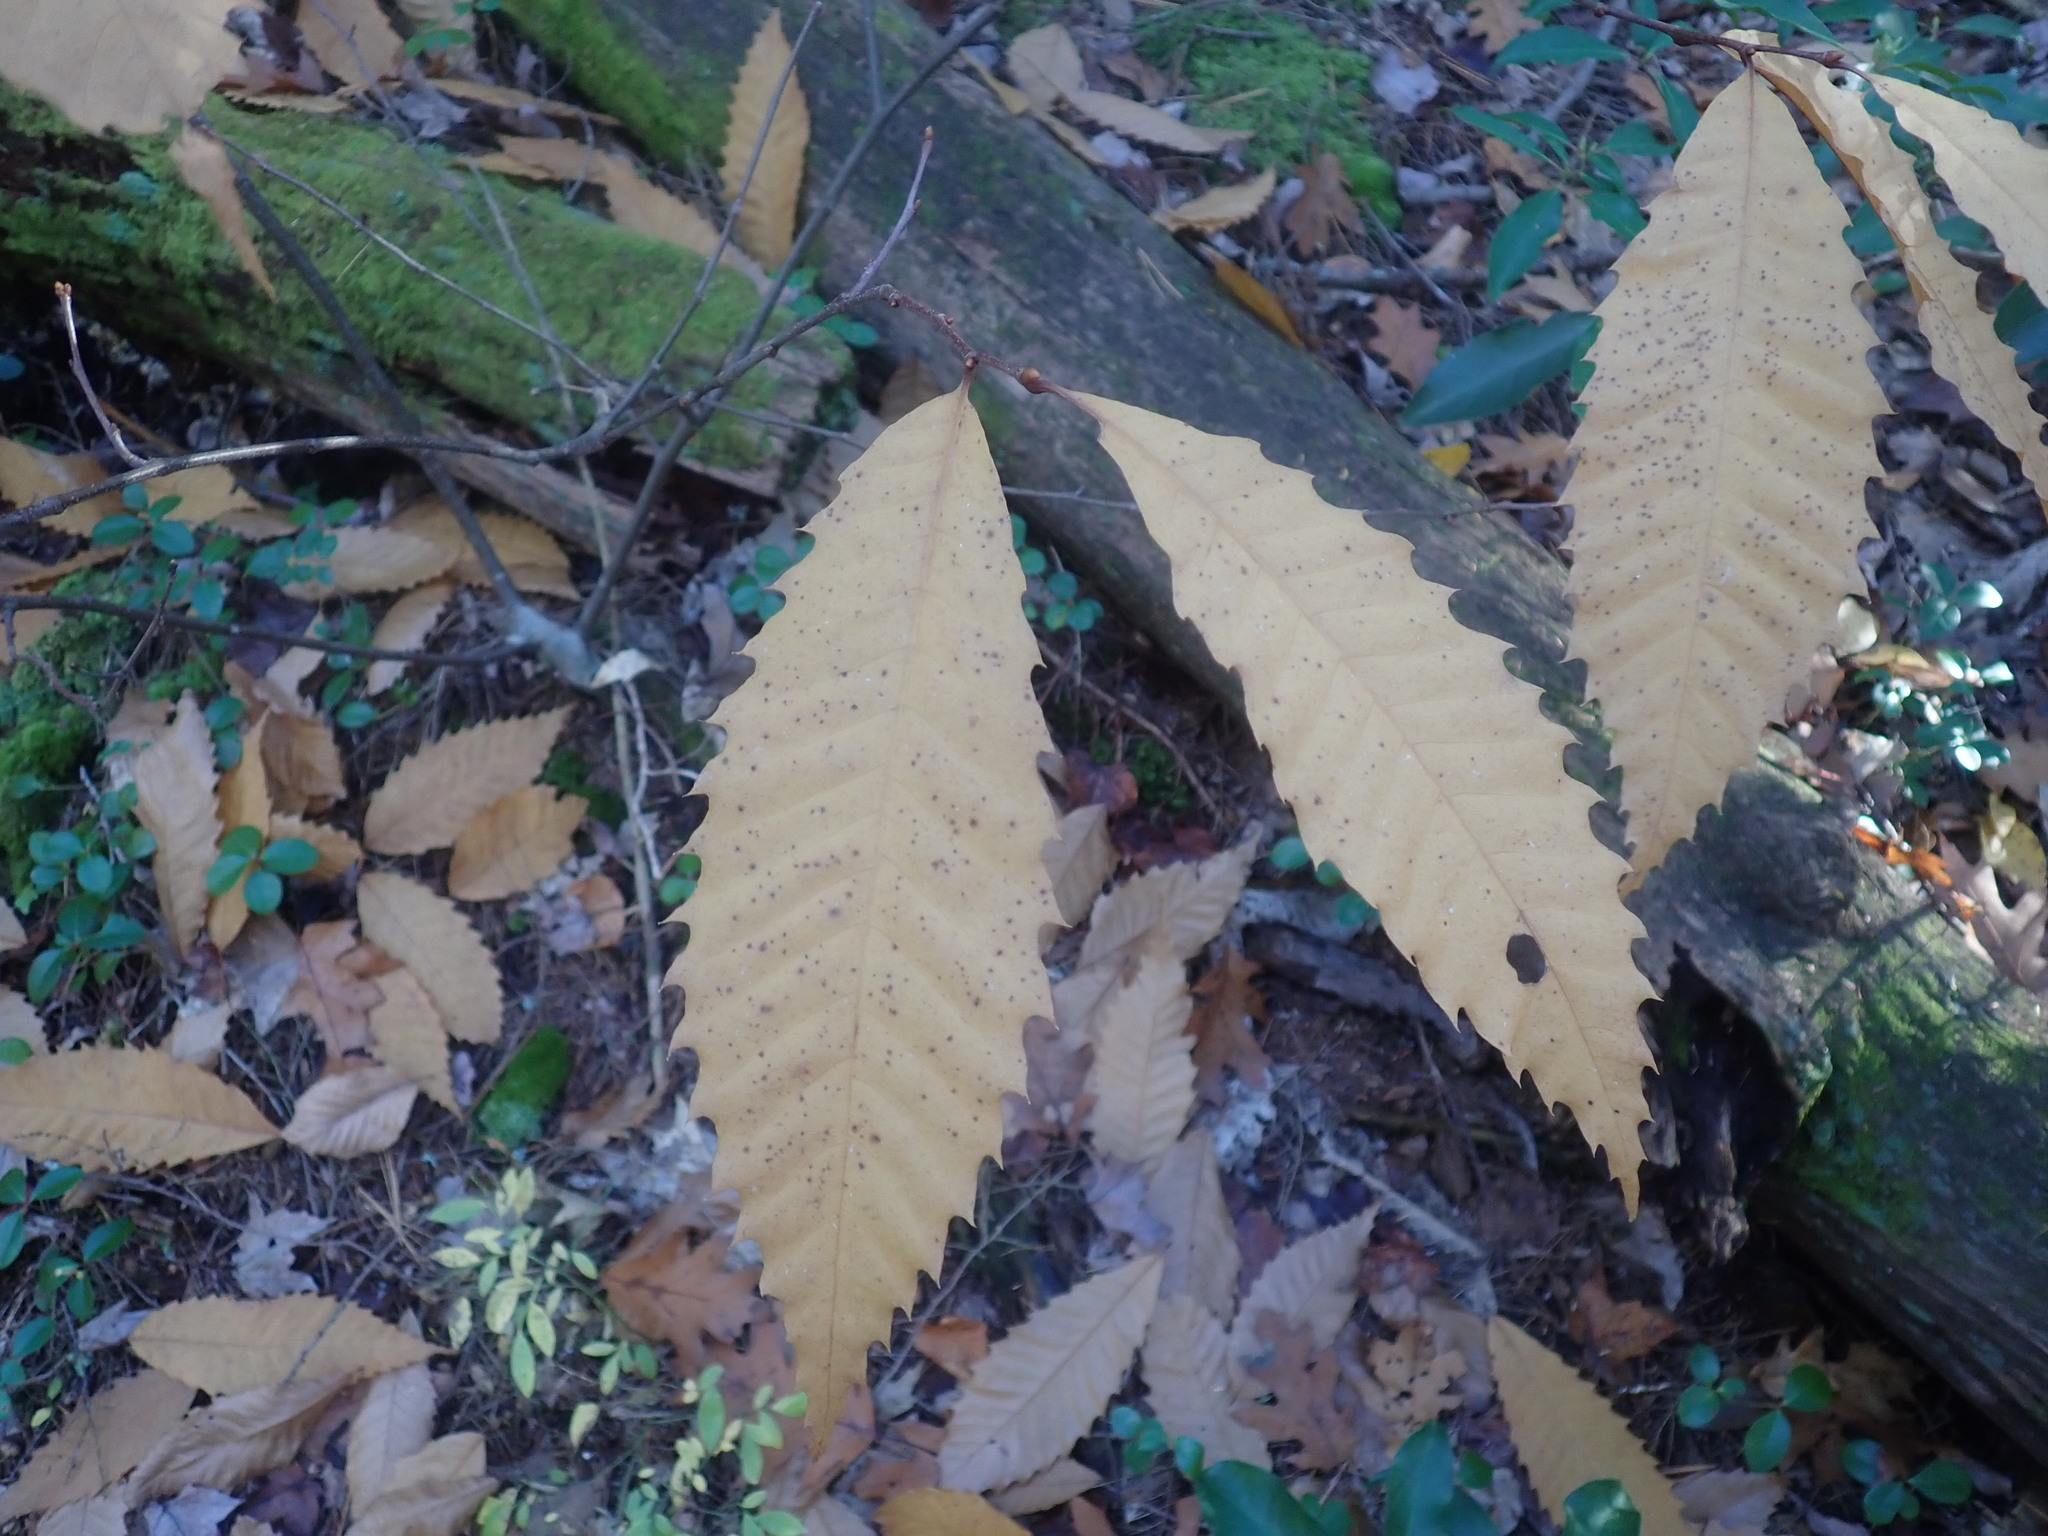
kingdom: Plantae
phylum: Tracheophyta
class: Magnoliopsida
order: Fagales
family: Fagaceae
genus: Castanea
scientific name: Castanea dentata
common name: American chestnut
